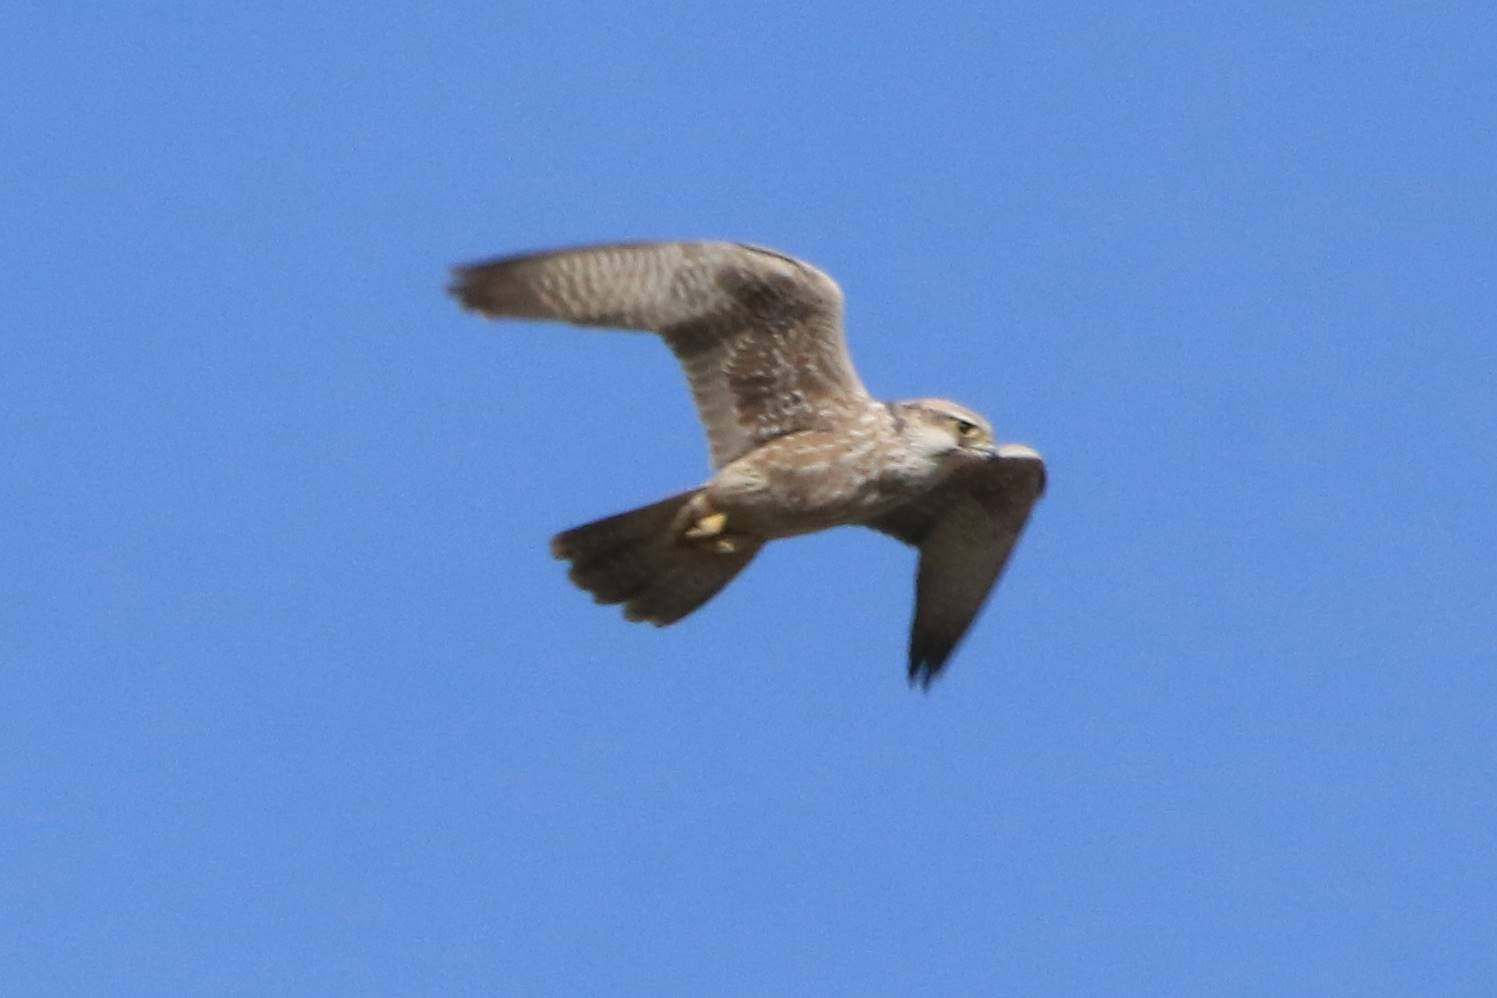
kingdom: Animalia
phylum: Chordata
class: Aves
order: Falconiformes
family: Falconidae
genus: Falco
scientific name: Falco biarmicus
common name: Lanner falcon
